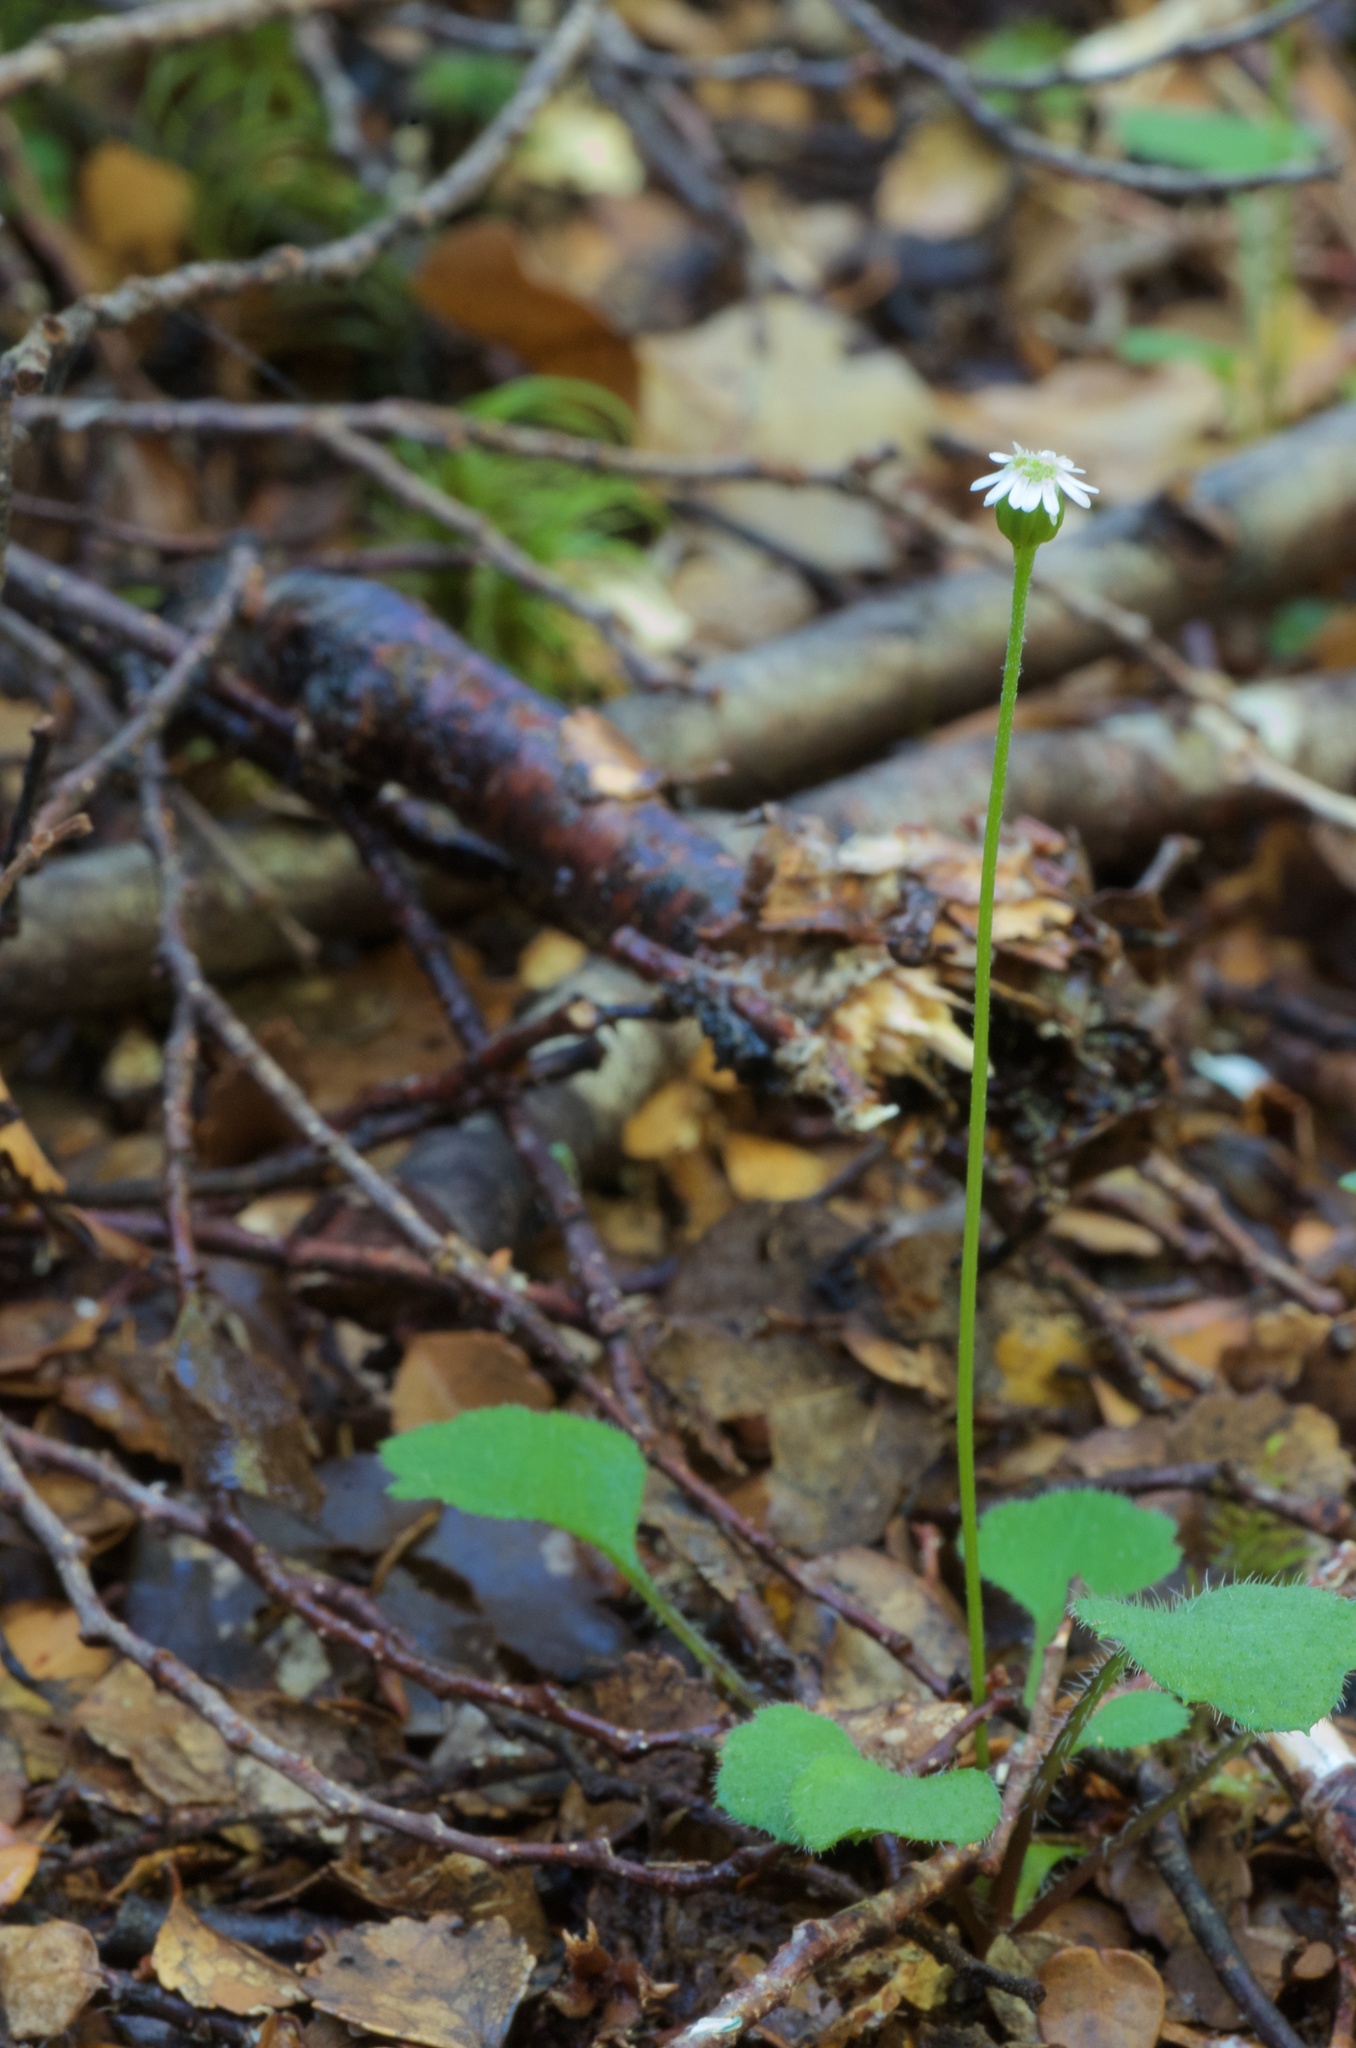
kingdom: Plantae
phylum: Tracheophyta
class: Magnoliopsida
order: Asterales
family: Asteraceae
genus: Lagenophora
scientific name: Lagenophora strangulata
